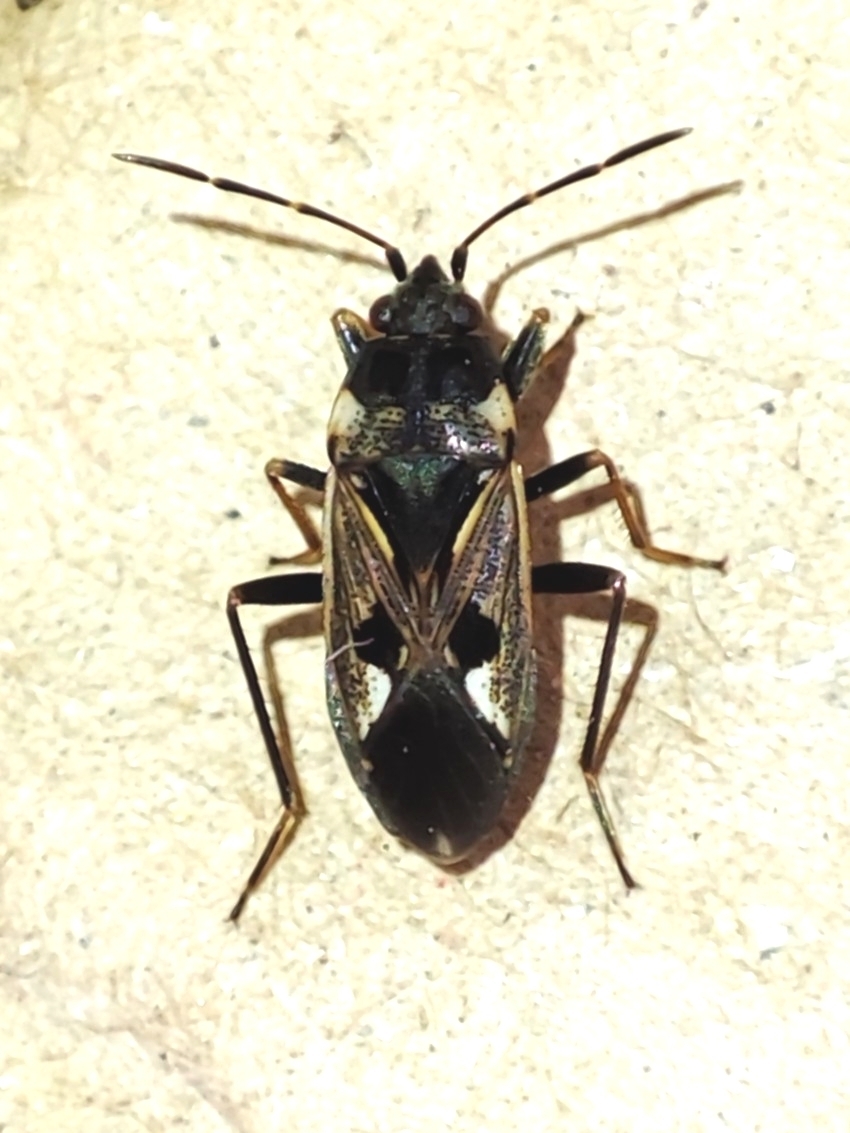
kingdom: Animalia
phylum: Arthropoda
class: Insecta
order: Hemiptera
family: Rhyparochromidae
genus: Rhyparochromus
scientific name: Rhyparochromus vulgaris
